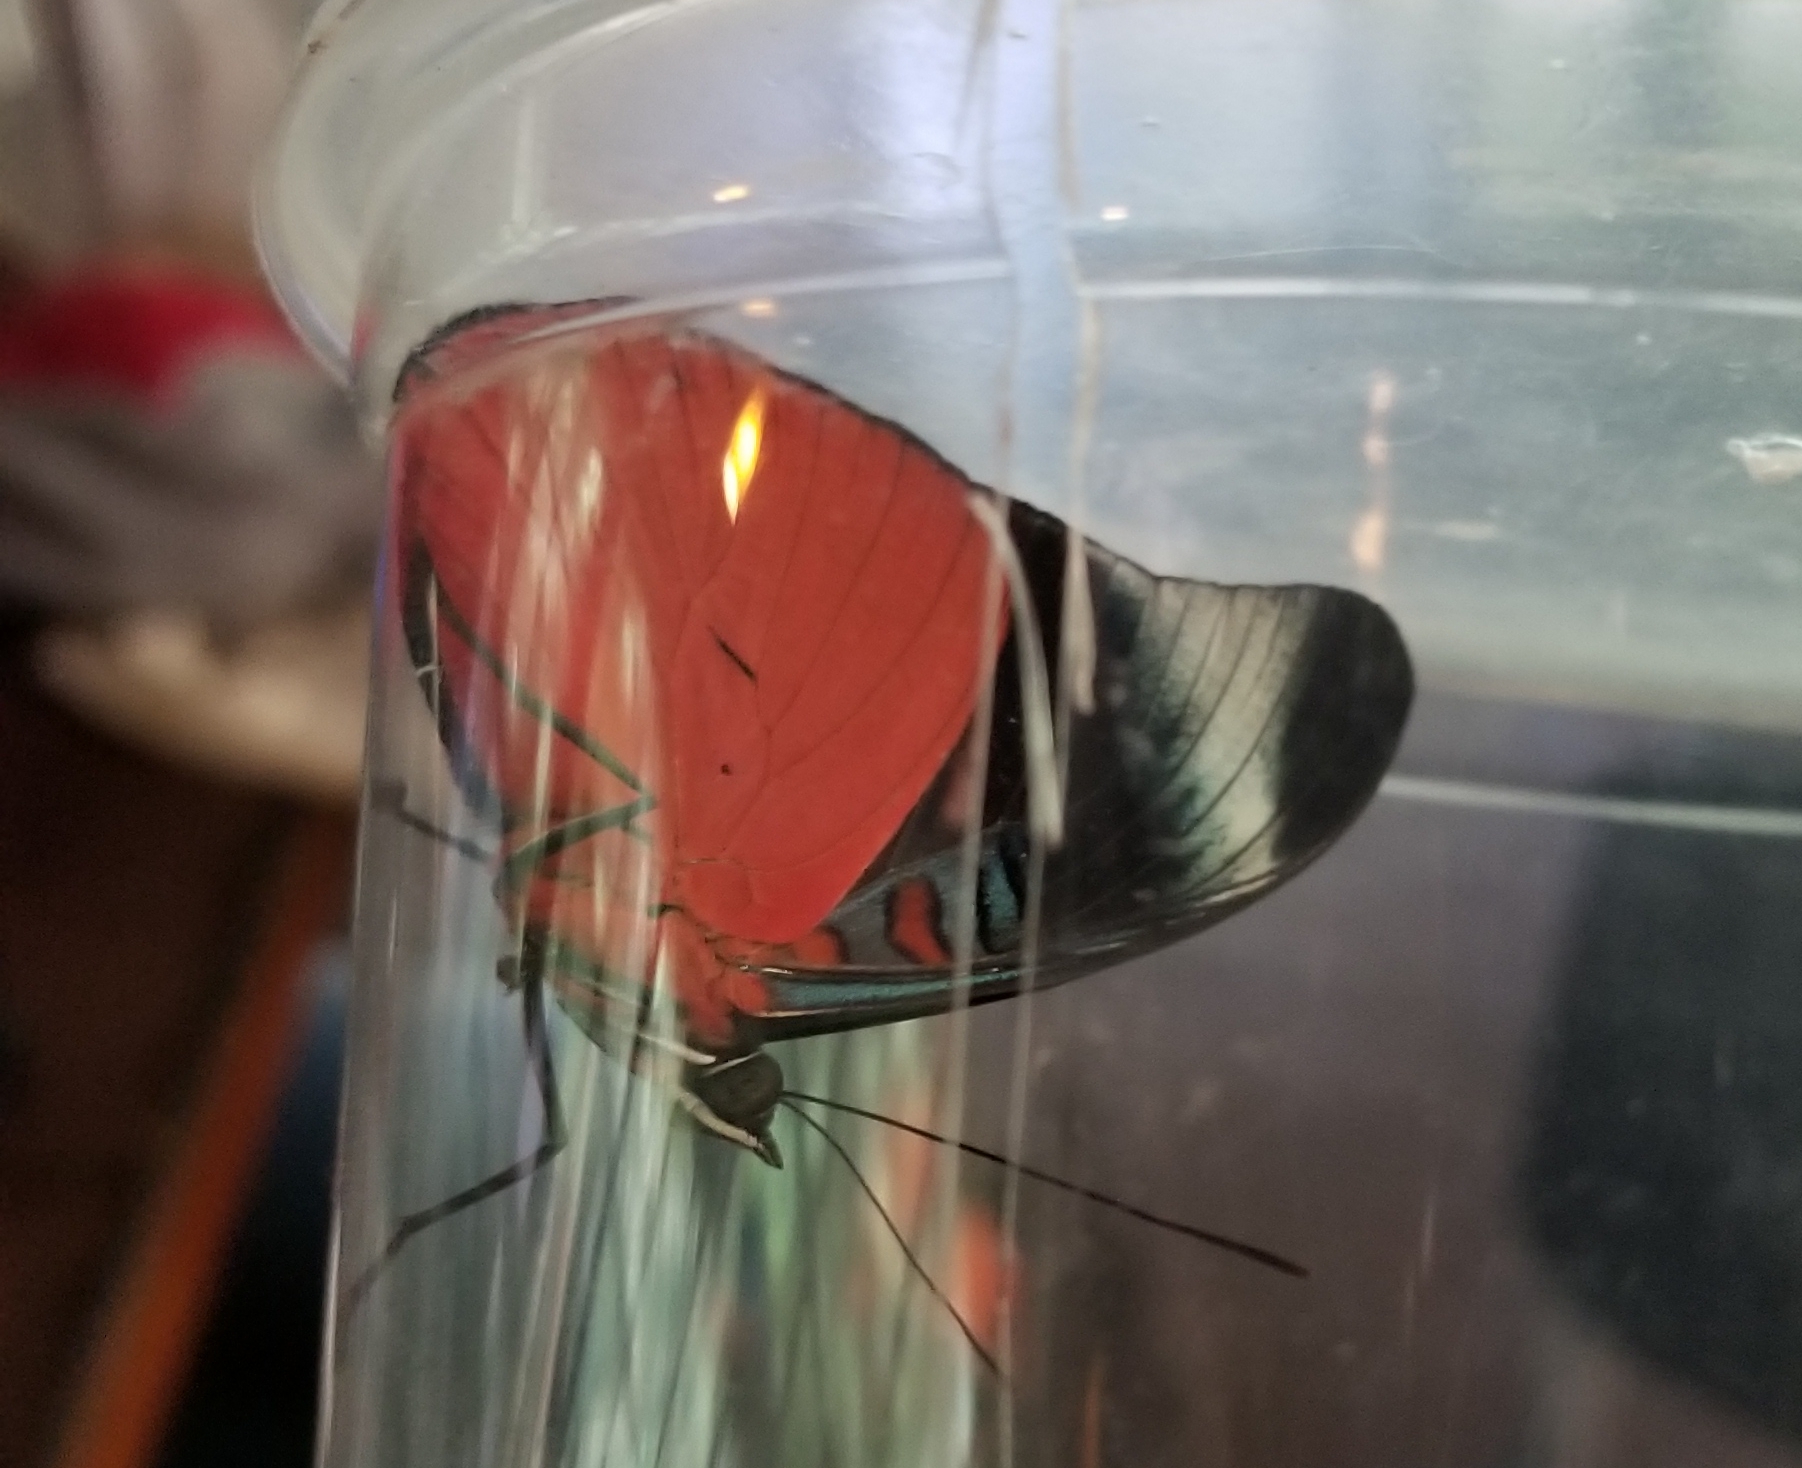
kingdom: Animalia
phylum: Arthropoda
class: Insecta
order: Lepidoptera
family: Nymphalidae
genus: Panacea
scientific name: Panacea prola
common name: Red flasher
